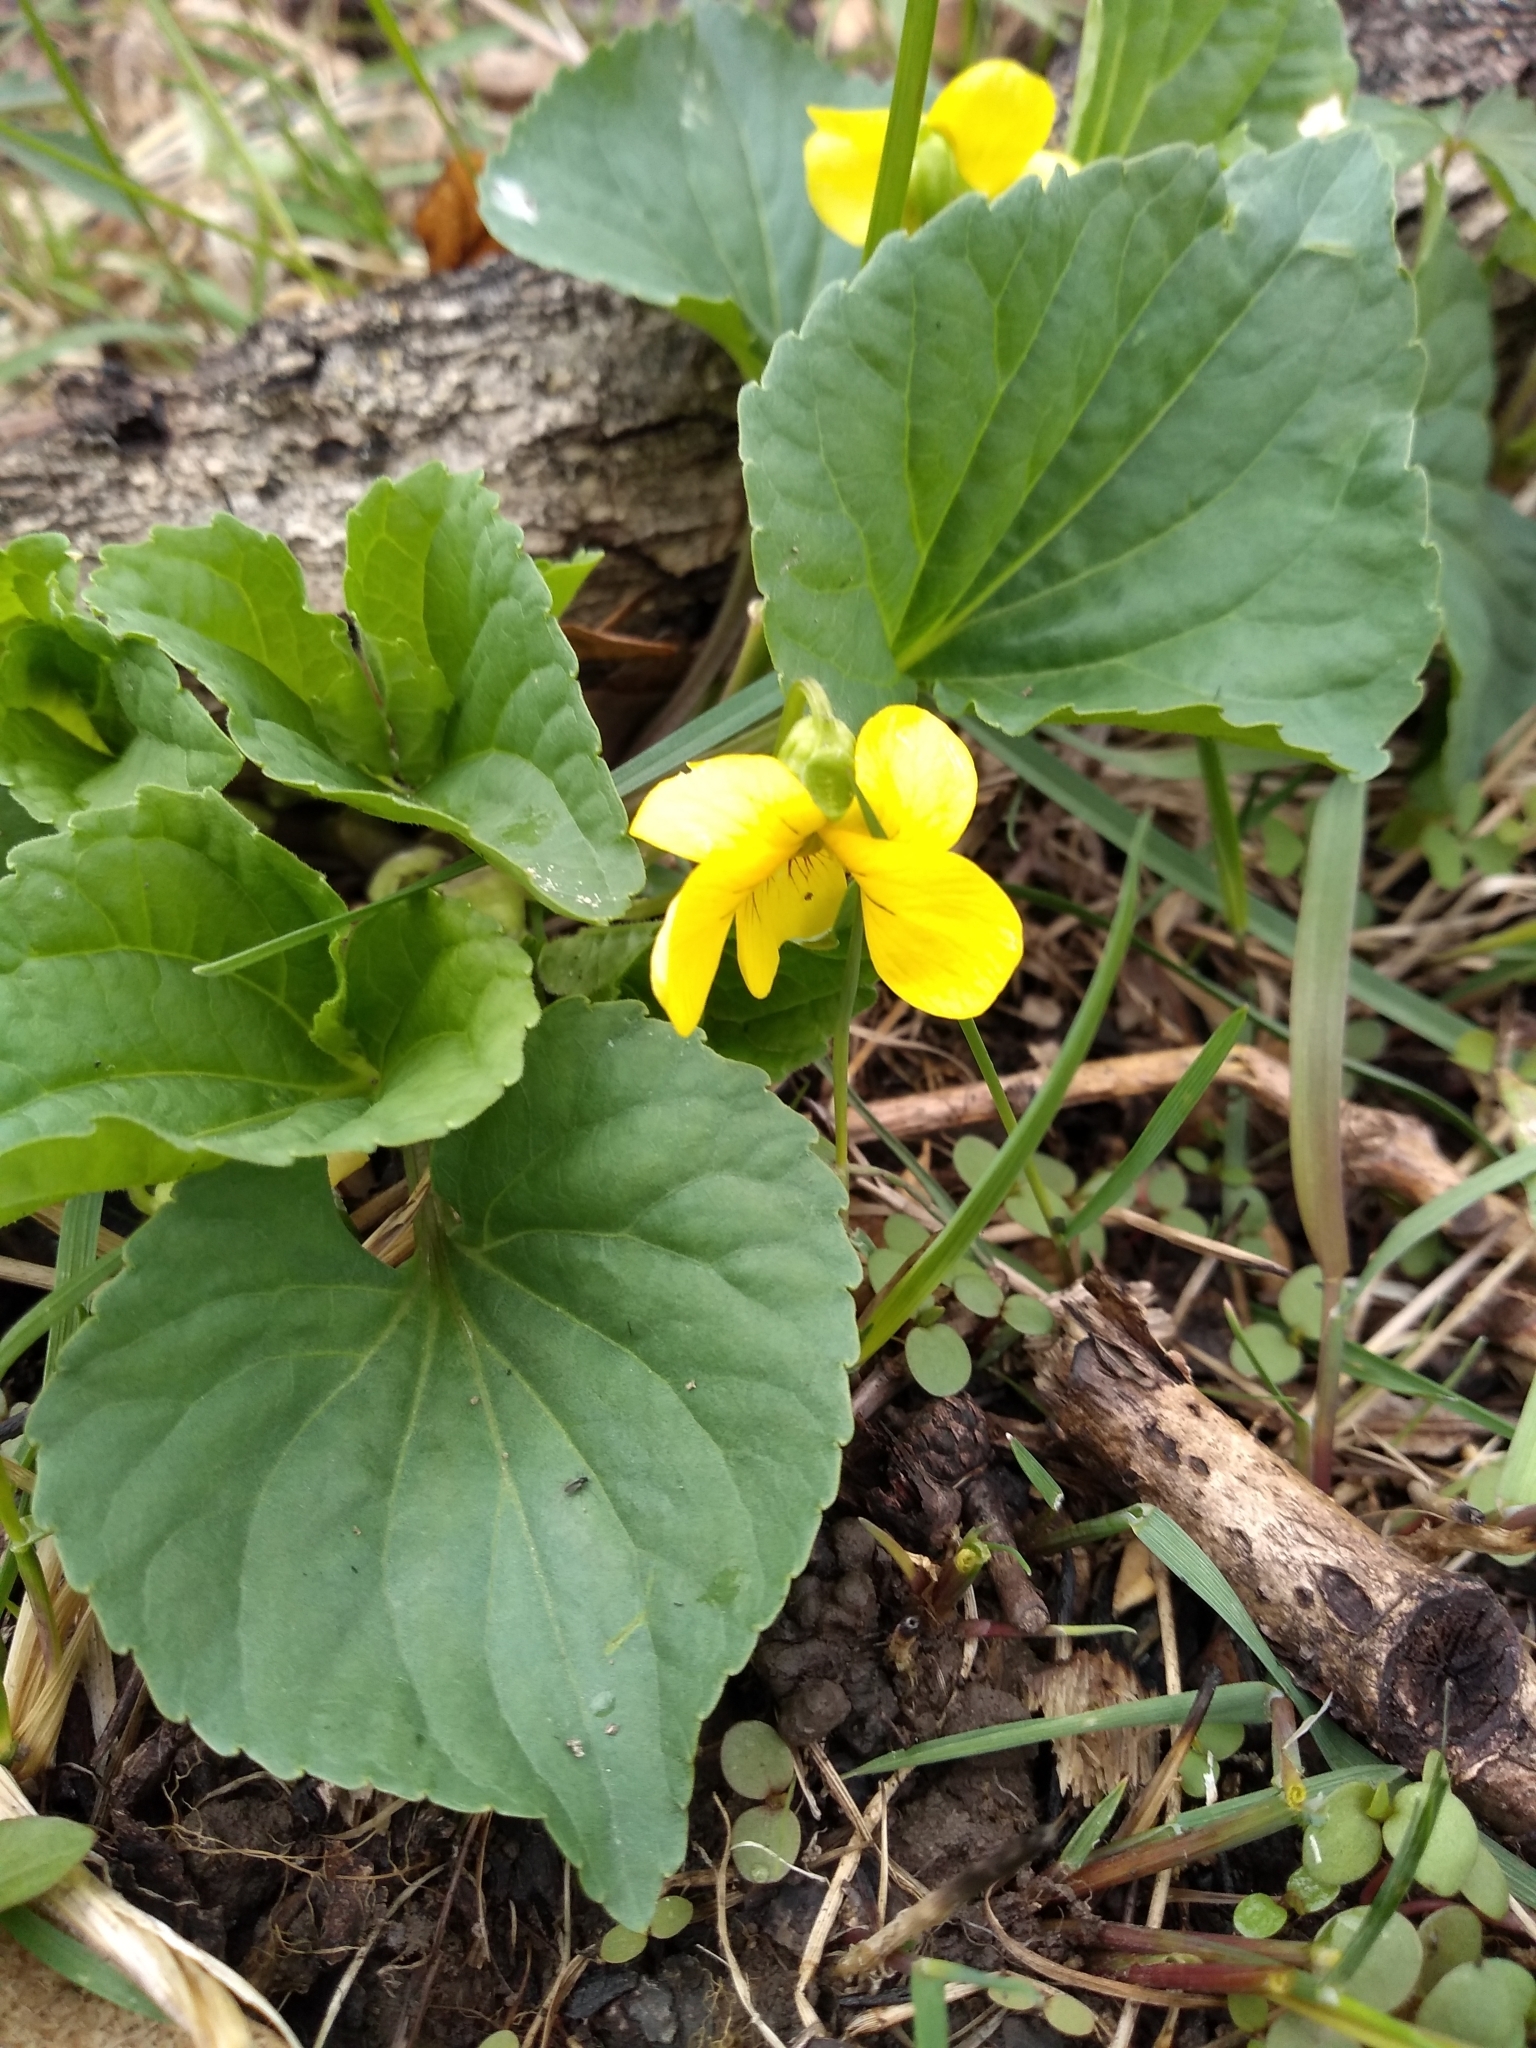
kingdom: Plantae
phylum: Tracheophyta
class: Magnoliopsida
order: Malpighiales
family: Violaceae
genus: Viola
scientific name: Viola eriocarpa
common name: Smooth yellow violet
